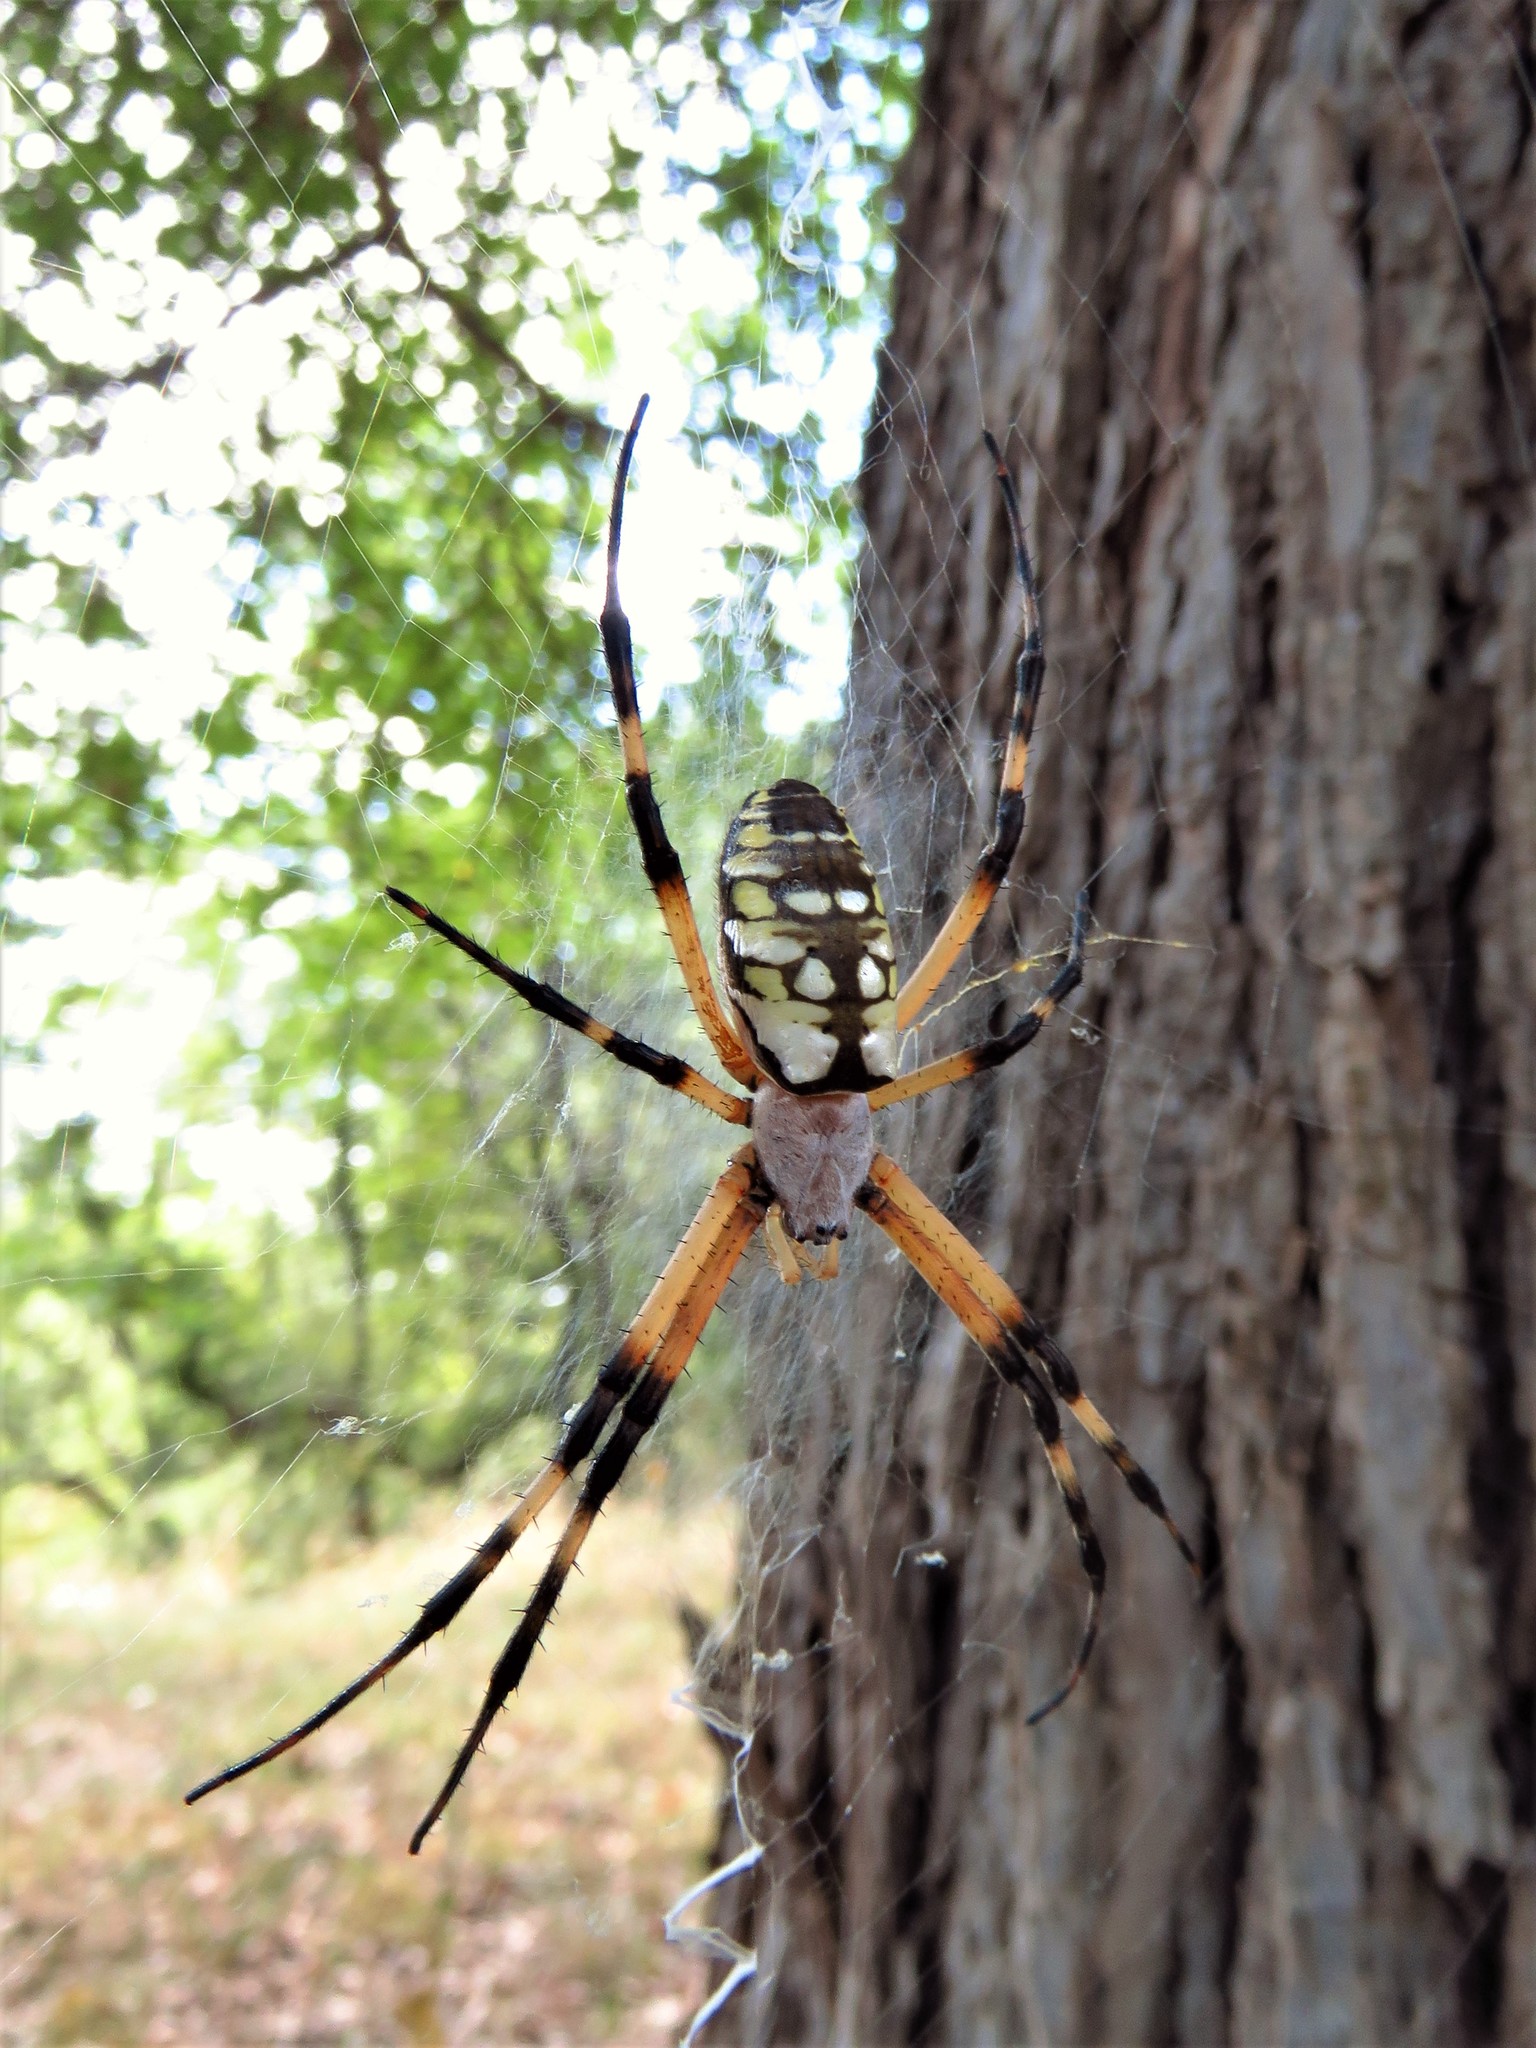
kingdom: Animalia
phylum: Arthropoda
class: Arachnida
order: Araneae
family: Araneidae
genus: Argiope
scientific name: Argiope aurantia
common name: Orb weavers
